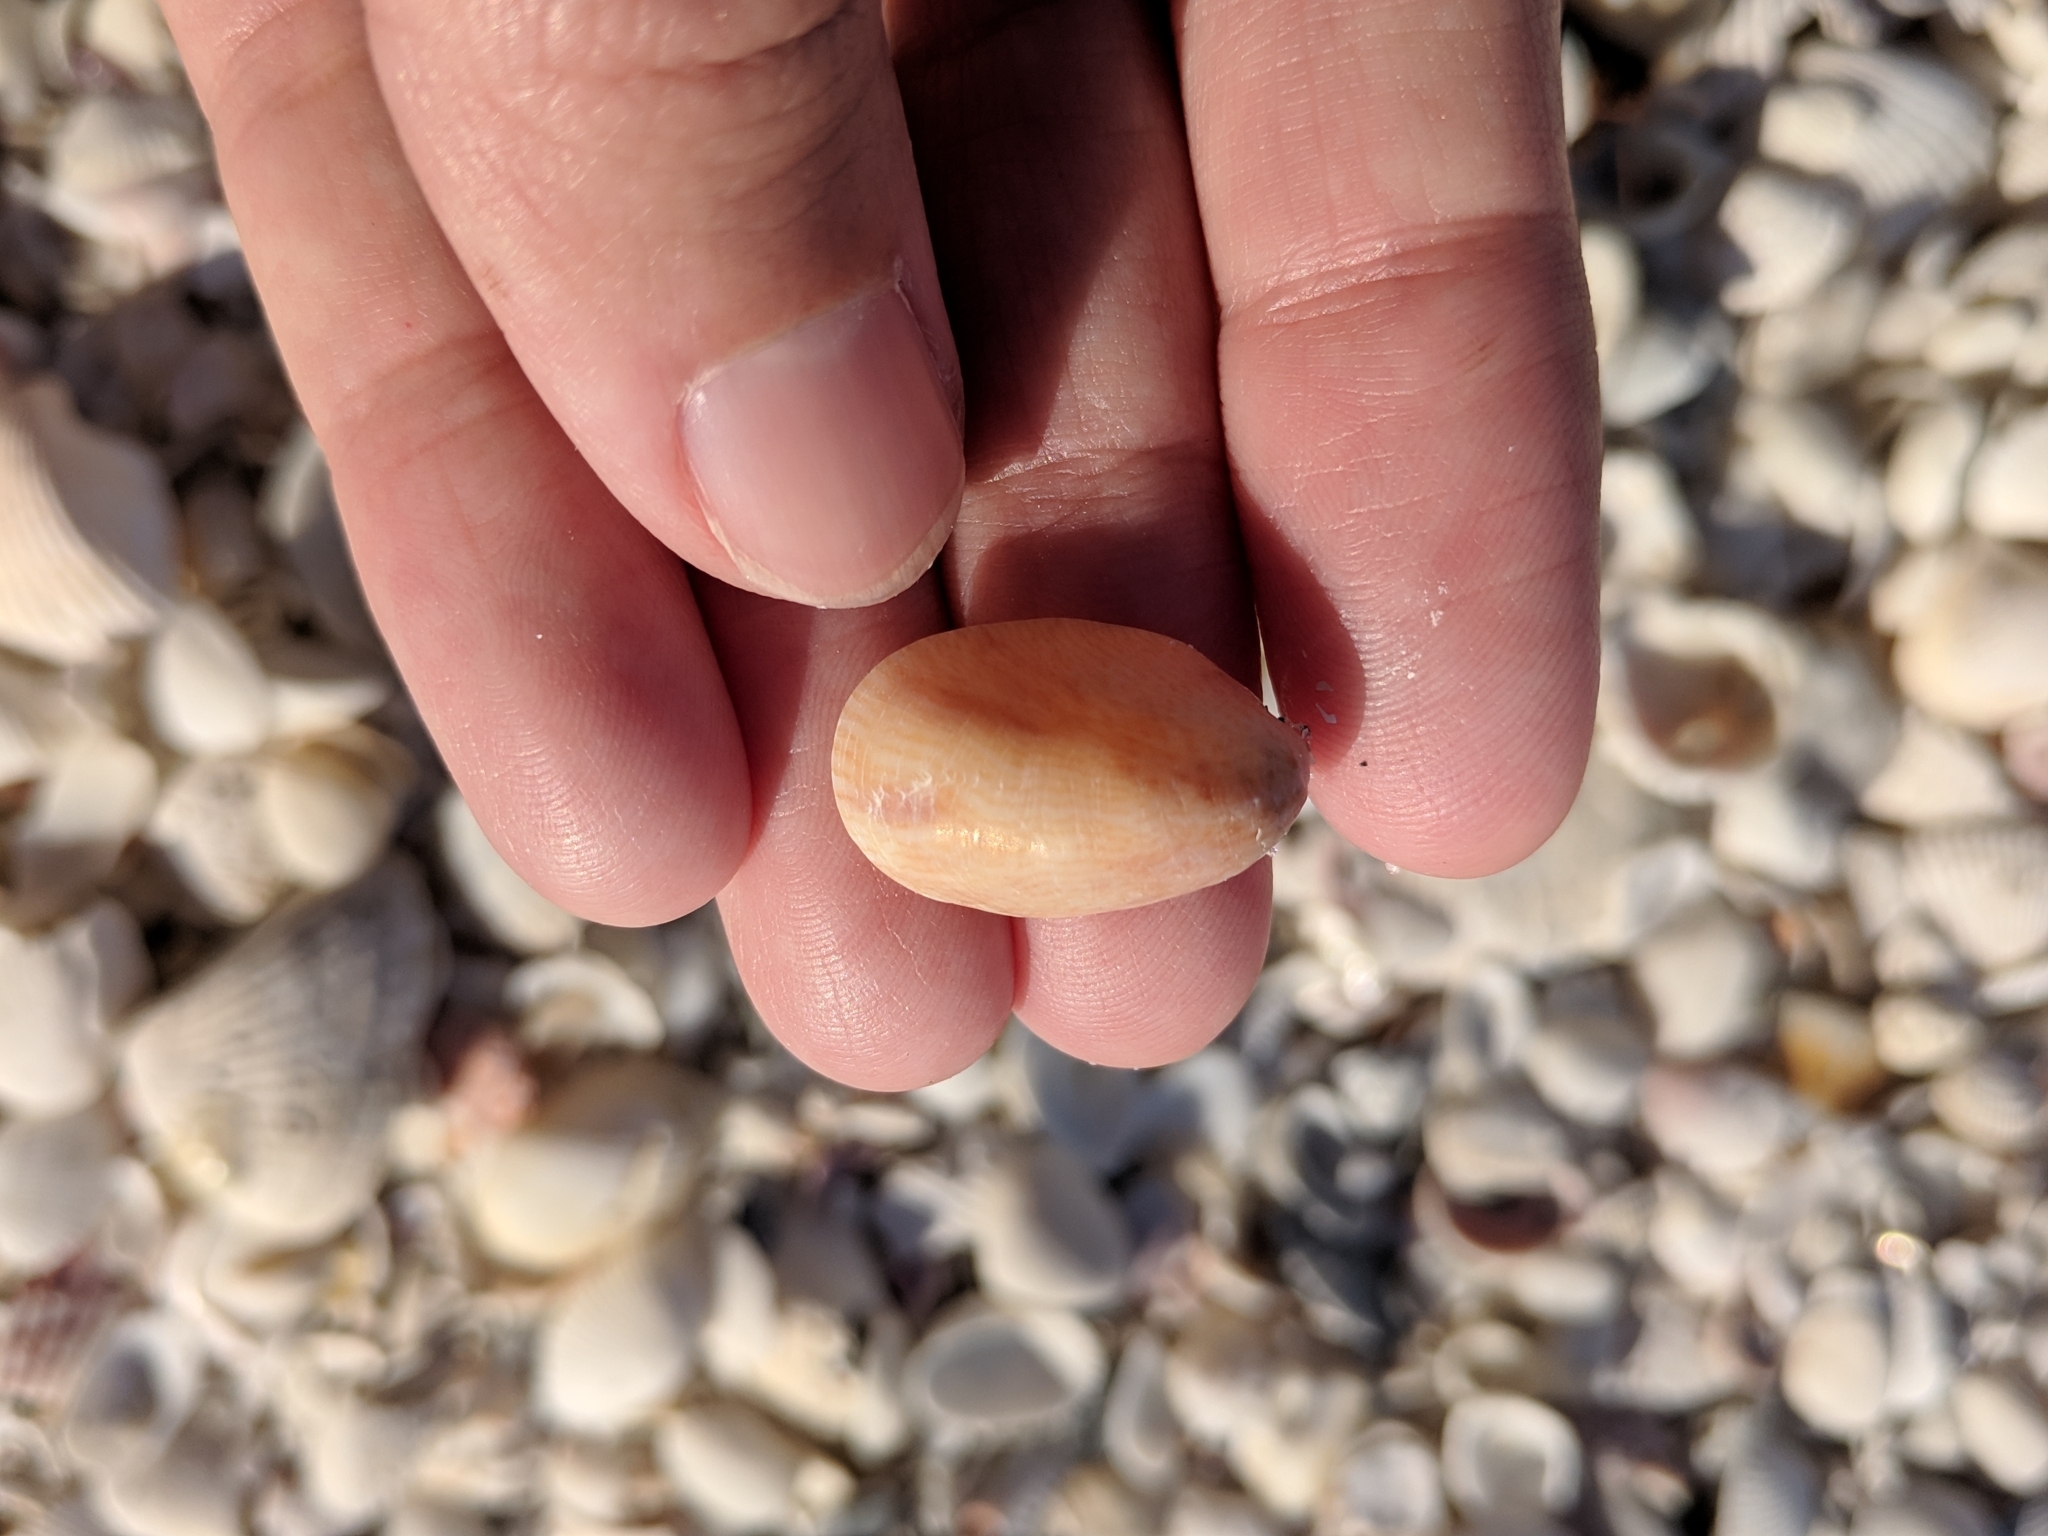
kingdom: Animalia
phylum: Mollusca
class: Gastropoda
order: Littorinimorpha
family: Calyptraeidae
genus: Crepidula
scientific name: Crepidula fornicata
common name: Slipper limpet
